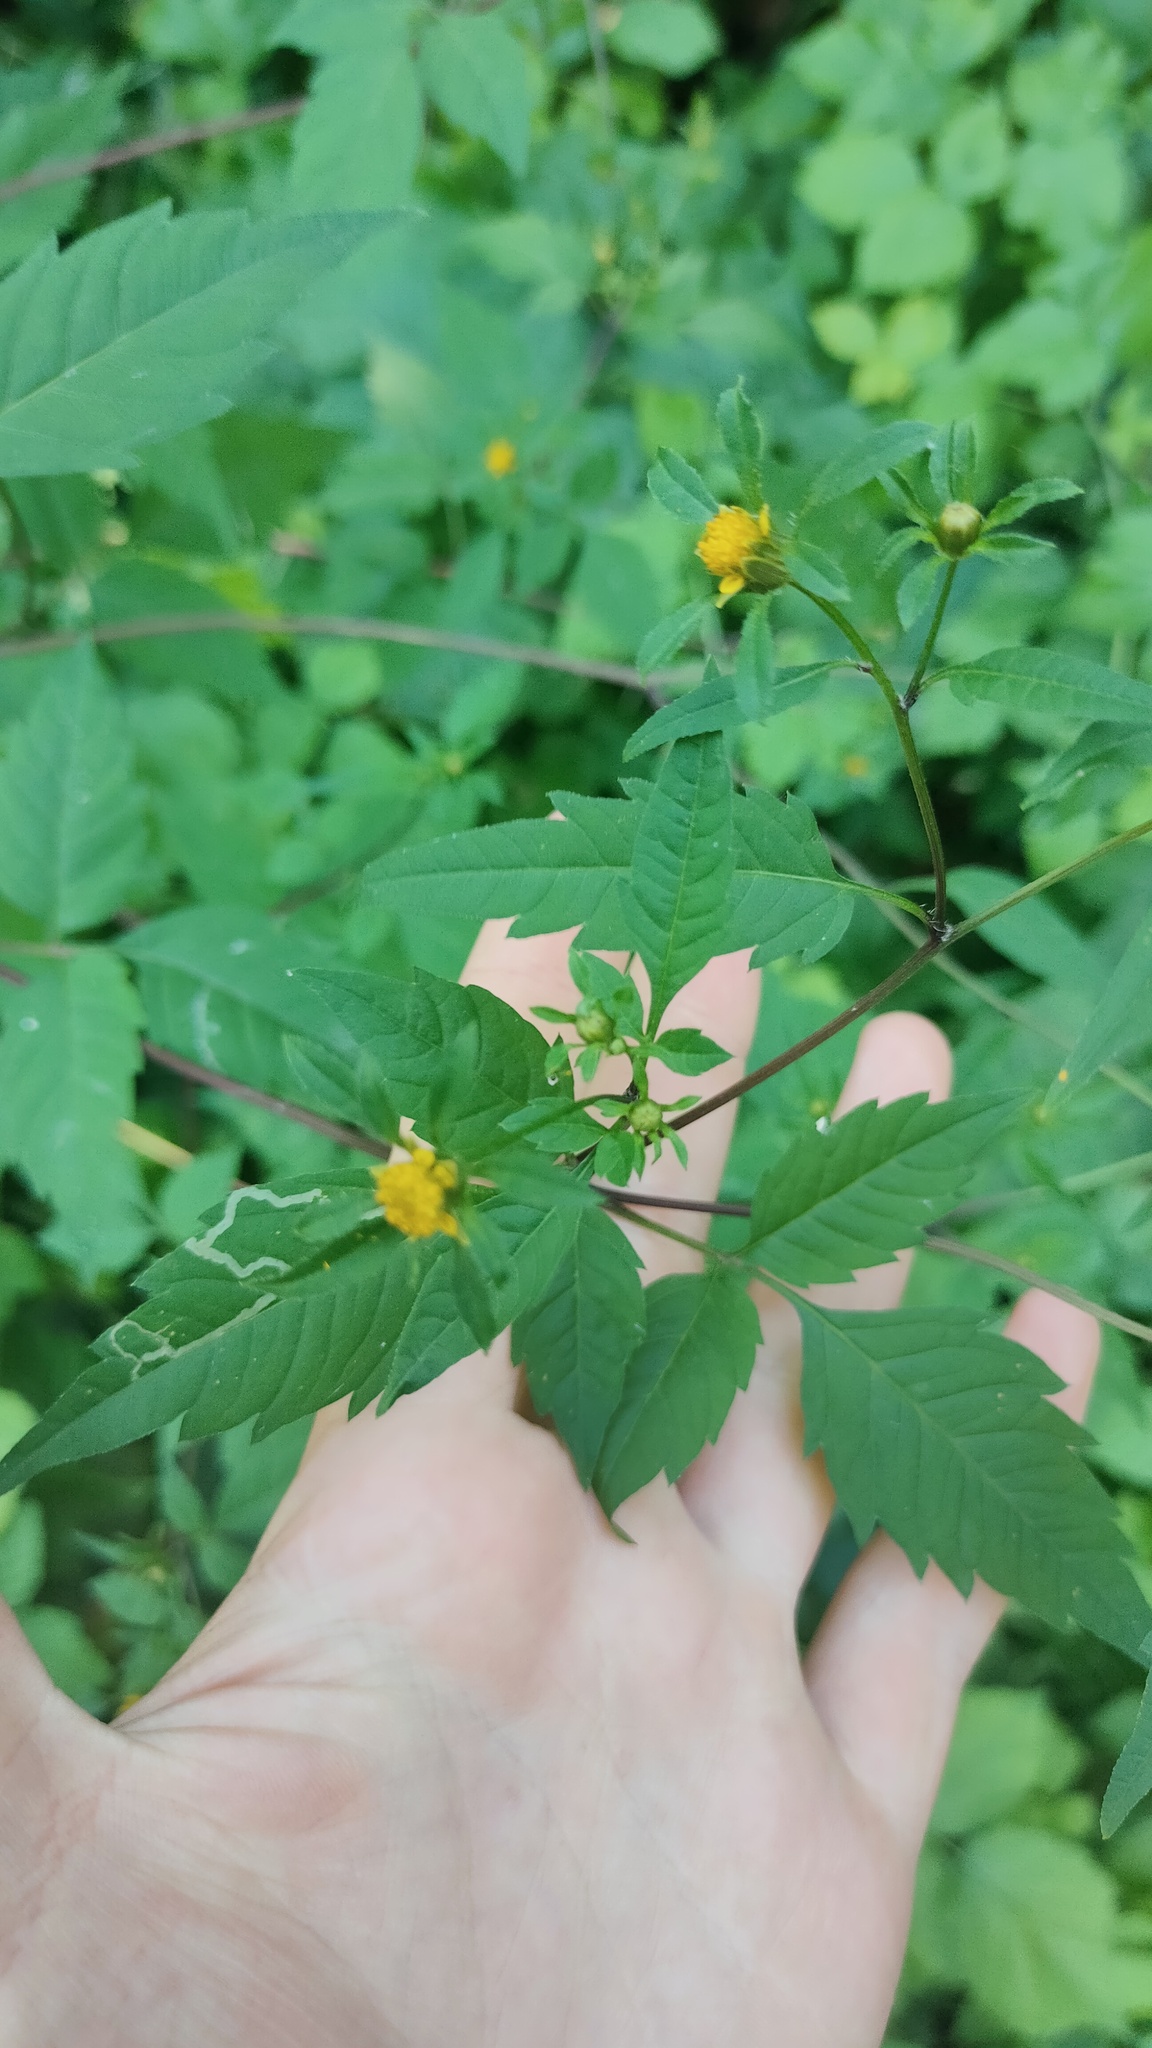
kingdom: Plantae
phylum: Tracheophyta
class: Magnoliopsida
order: Asterales
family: Asteraceae
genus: Bidens
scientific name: Bidens frondosa
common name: Beggarticks
